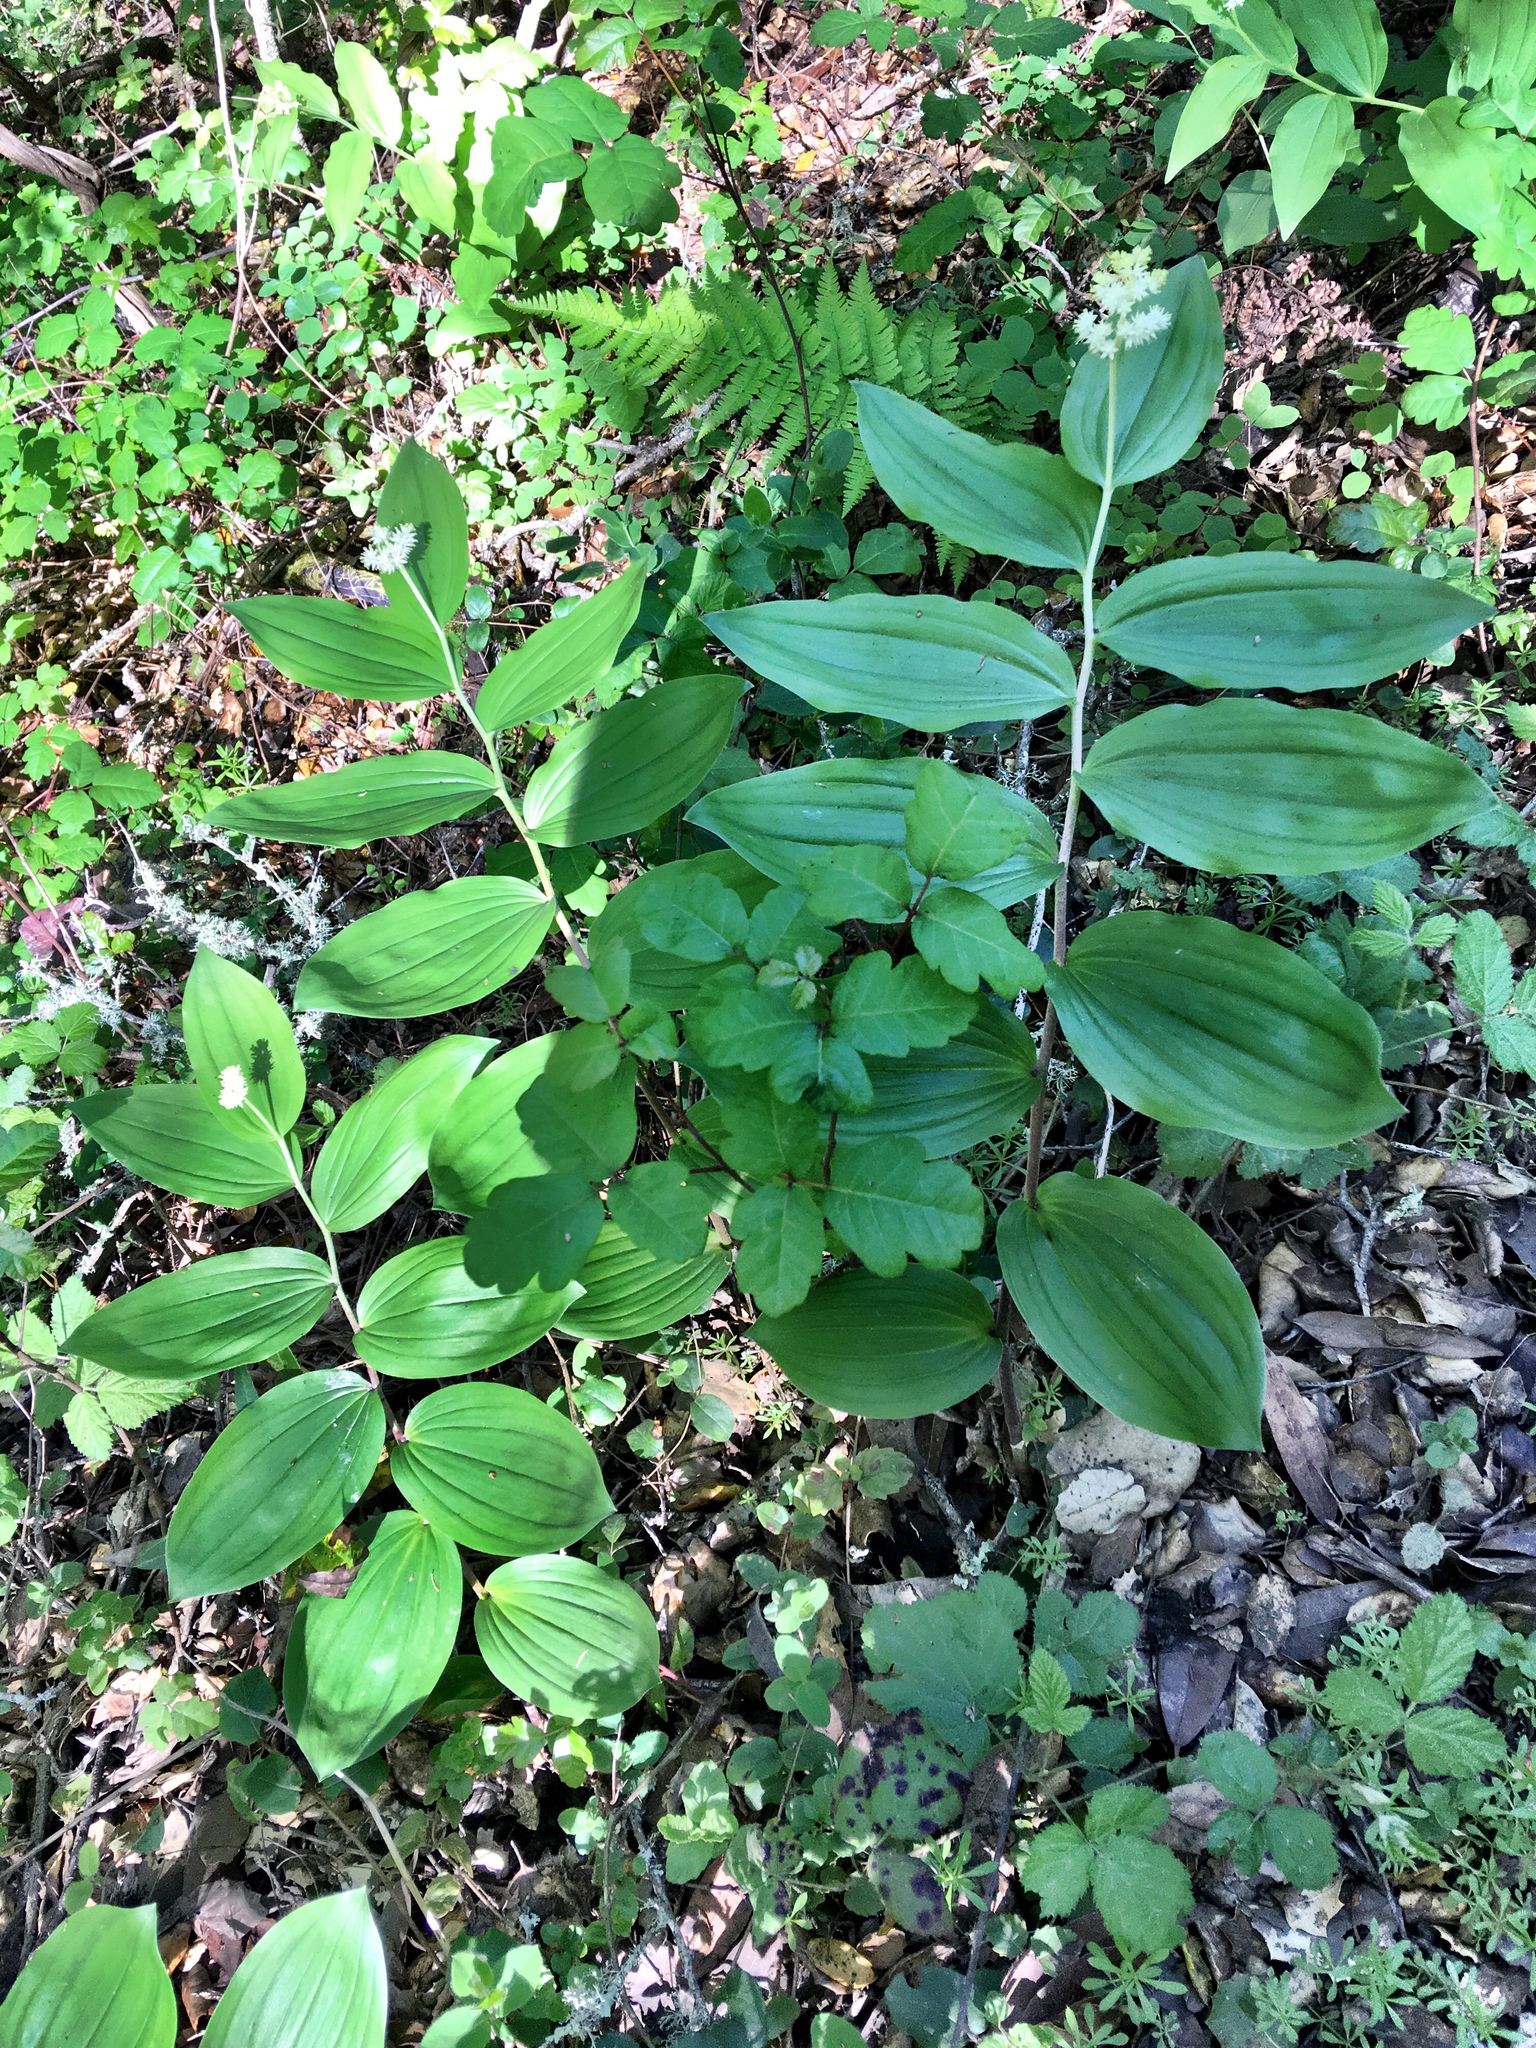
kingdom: Plantae
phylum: Tracheophyta
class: Liliopsida
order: Asparagales
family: Asparagaceae
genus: Maianthemum
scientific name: Maianthemum racemosum
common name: False spikenard
